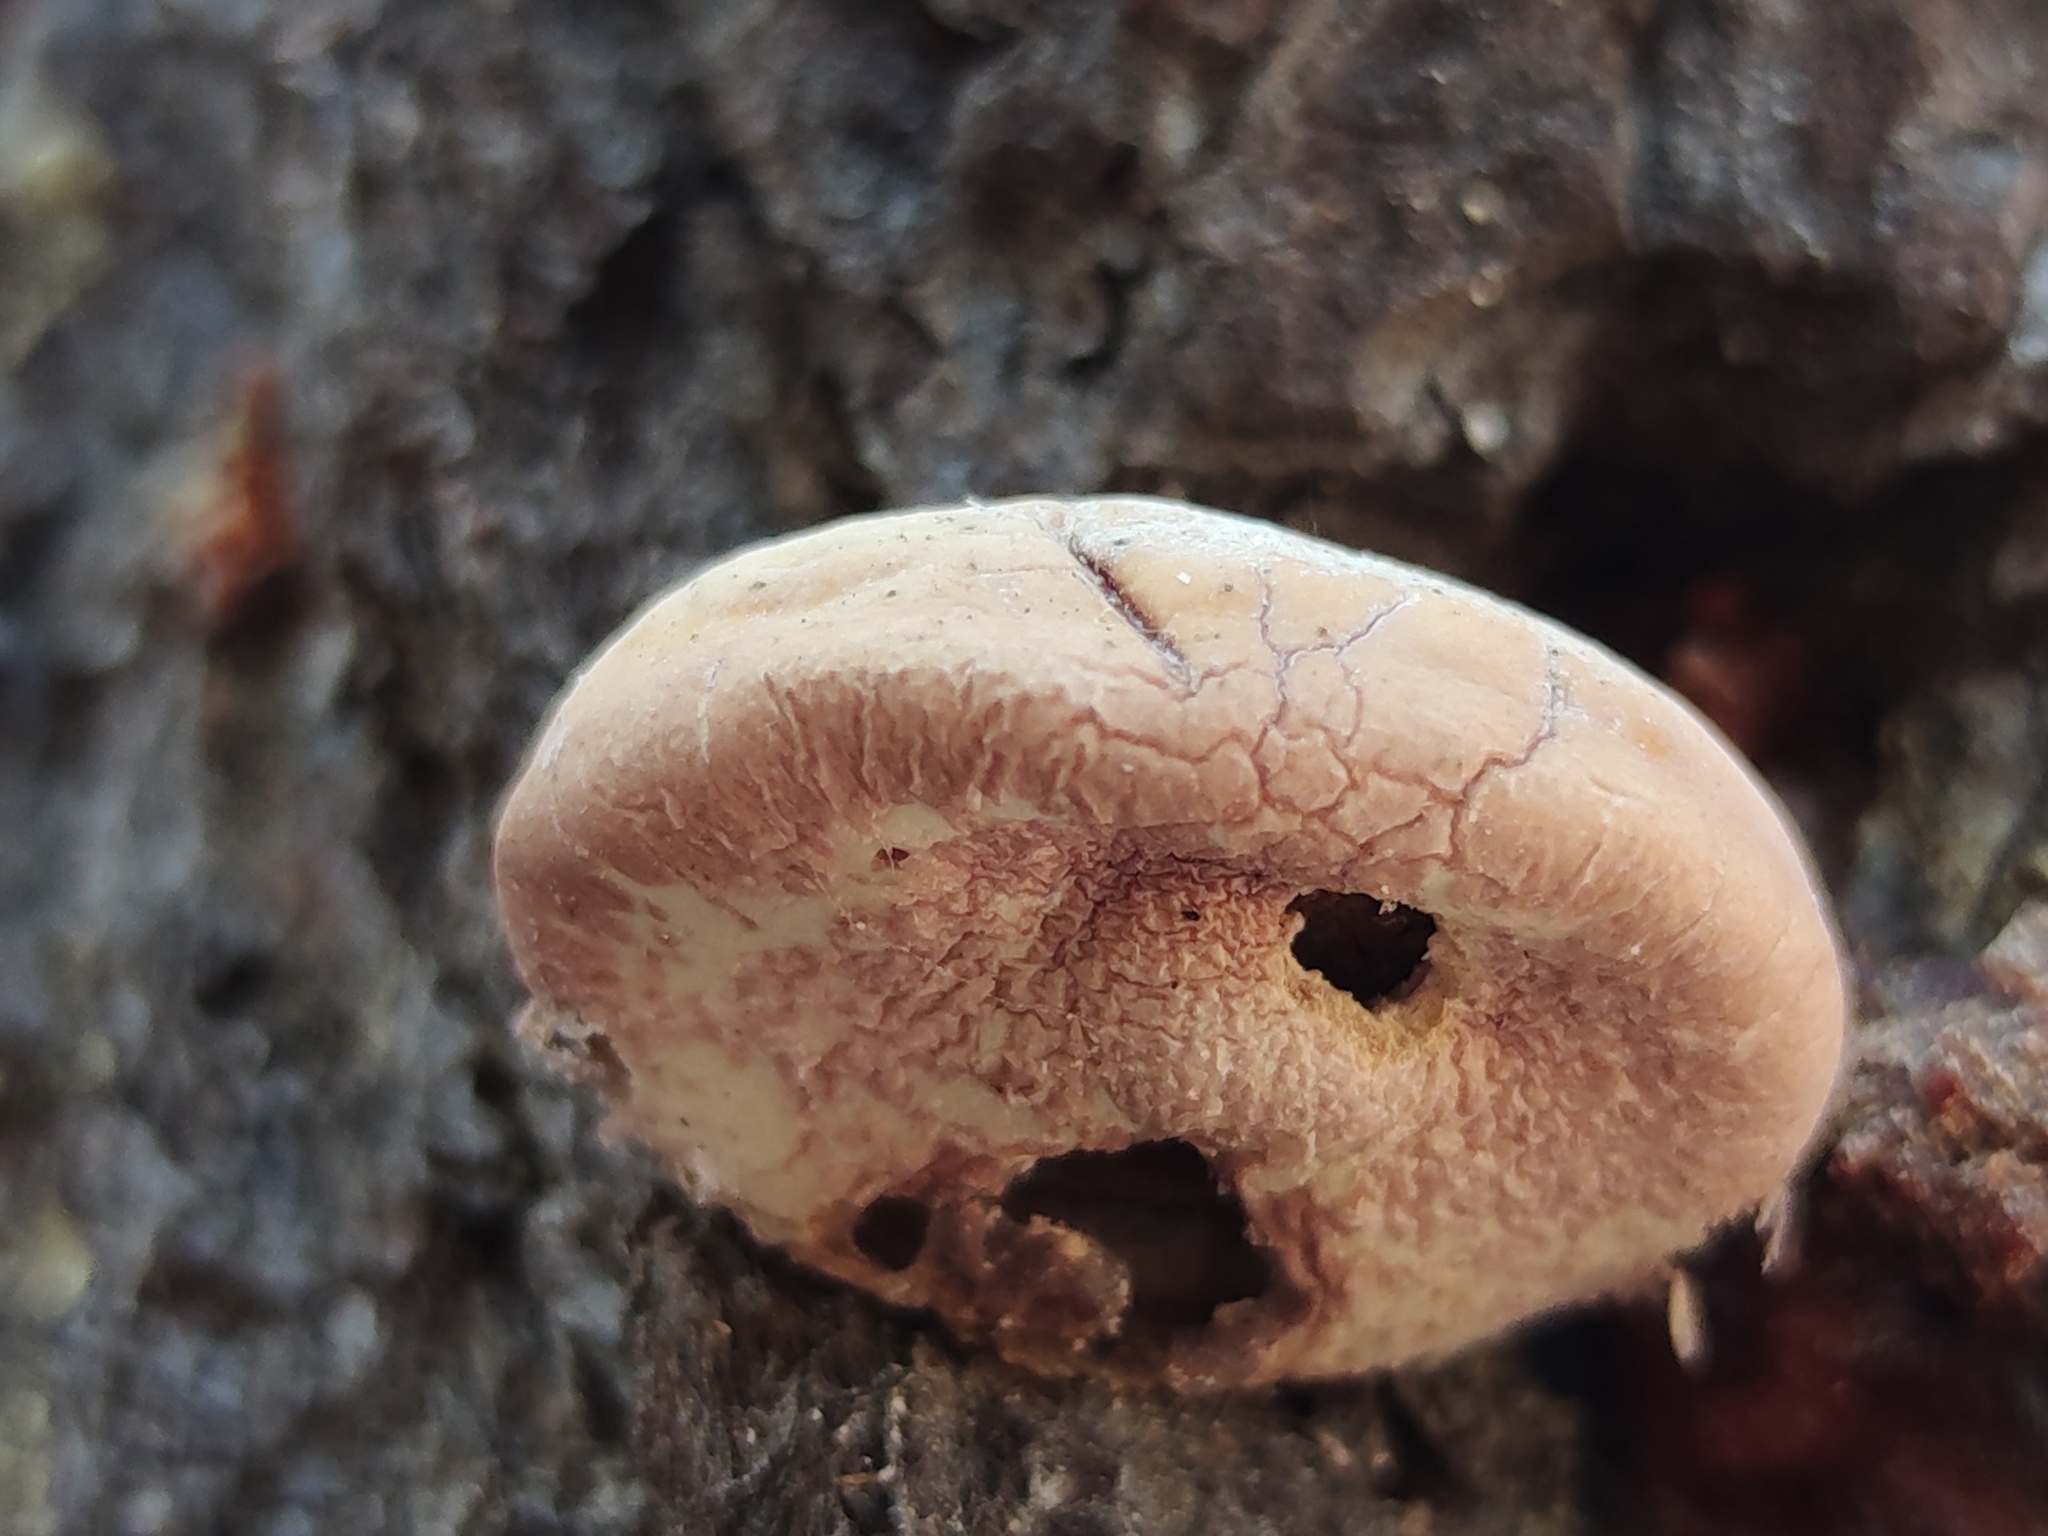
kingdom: Fungi
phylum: Basidiomycota
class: Agaricomycetes
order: Polyporales
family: Polyporaceae
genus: Cryptoporus
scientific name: Cryptoporus volvatus
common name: Veiled polypore
